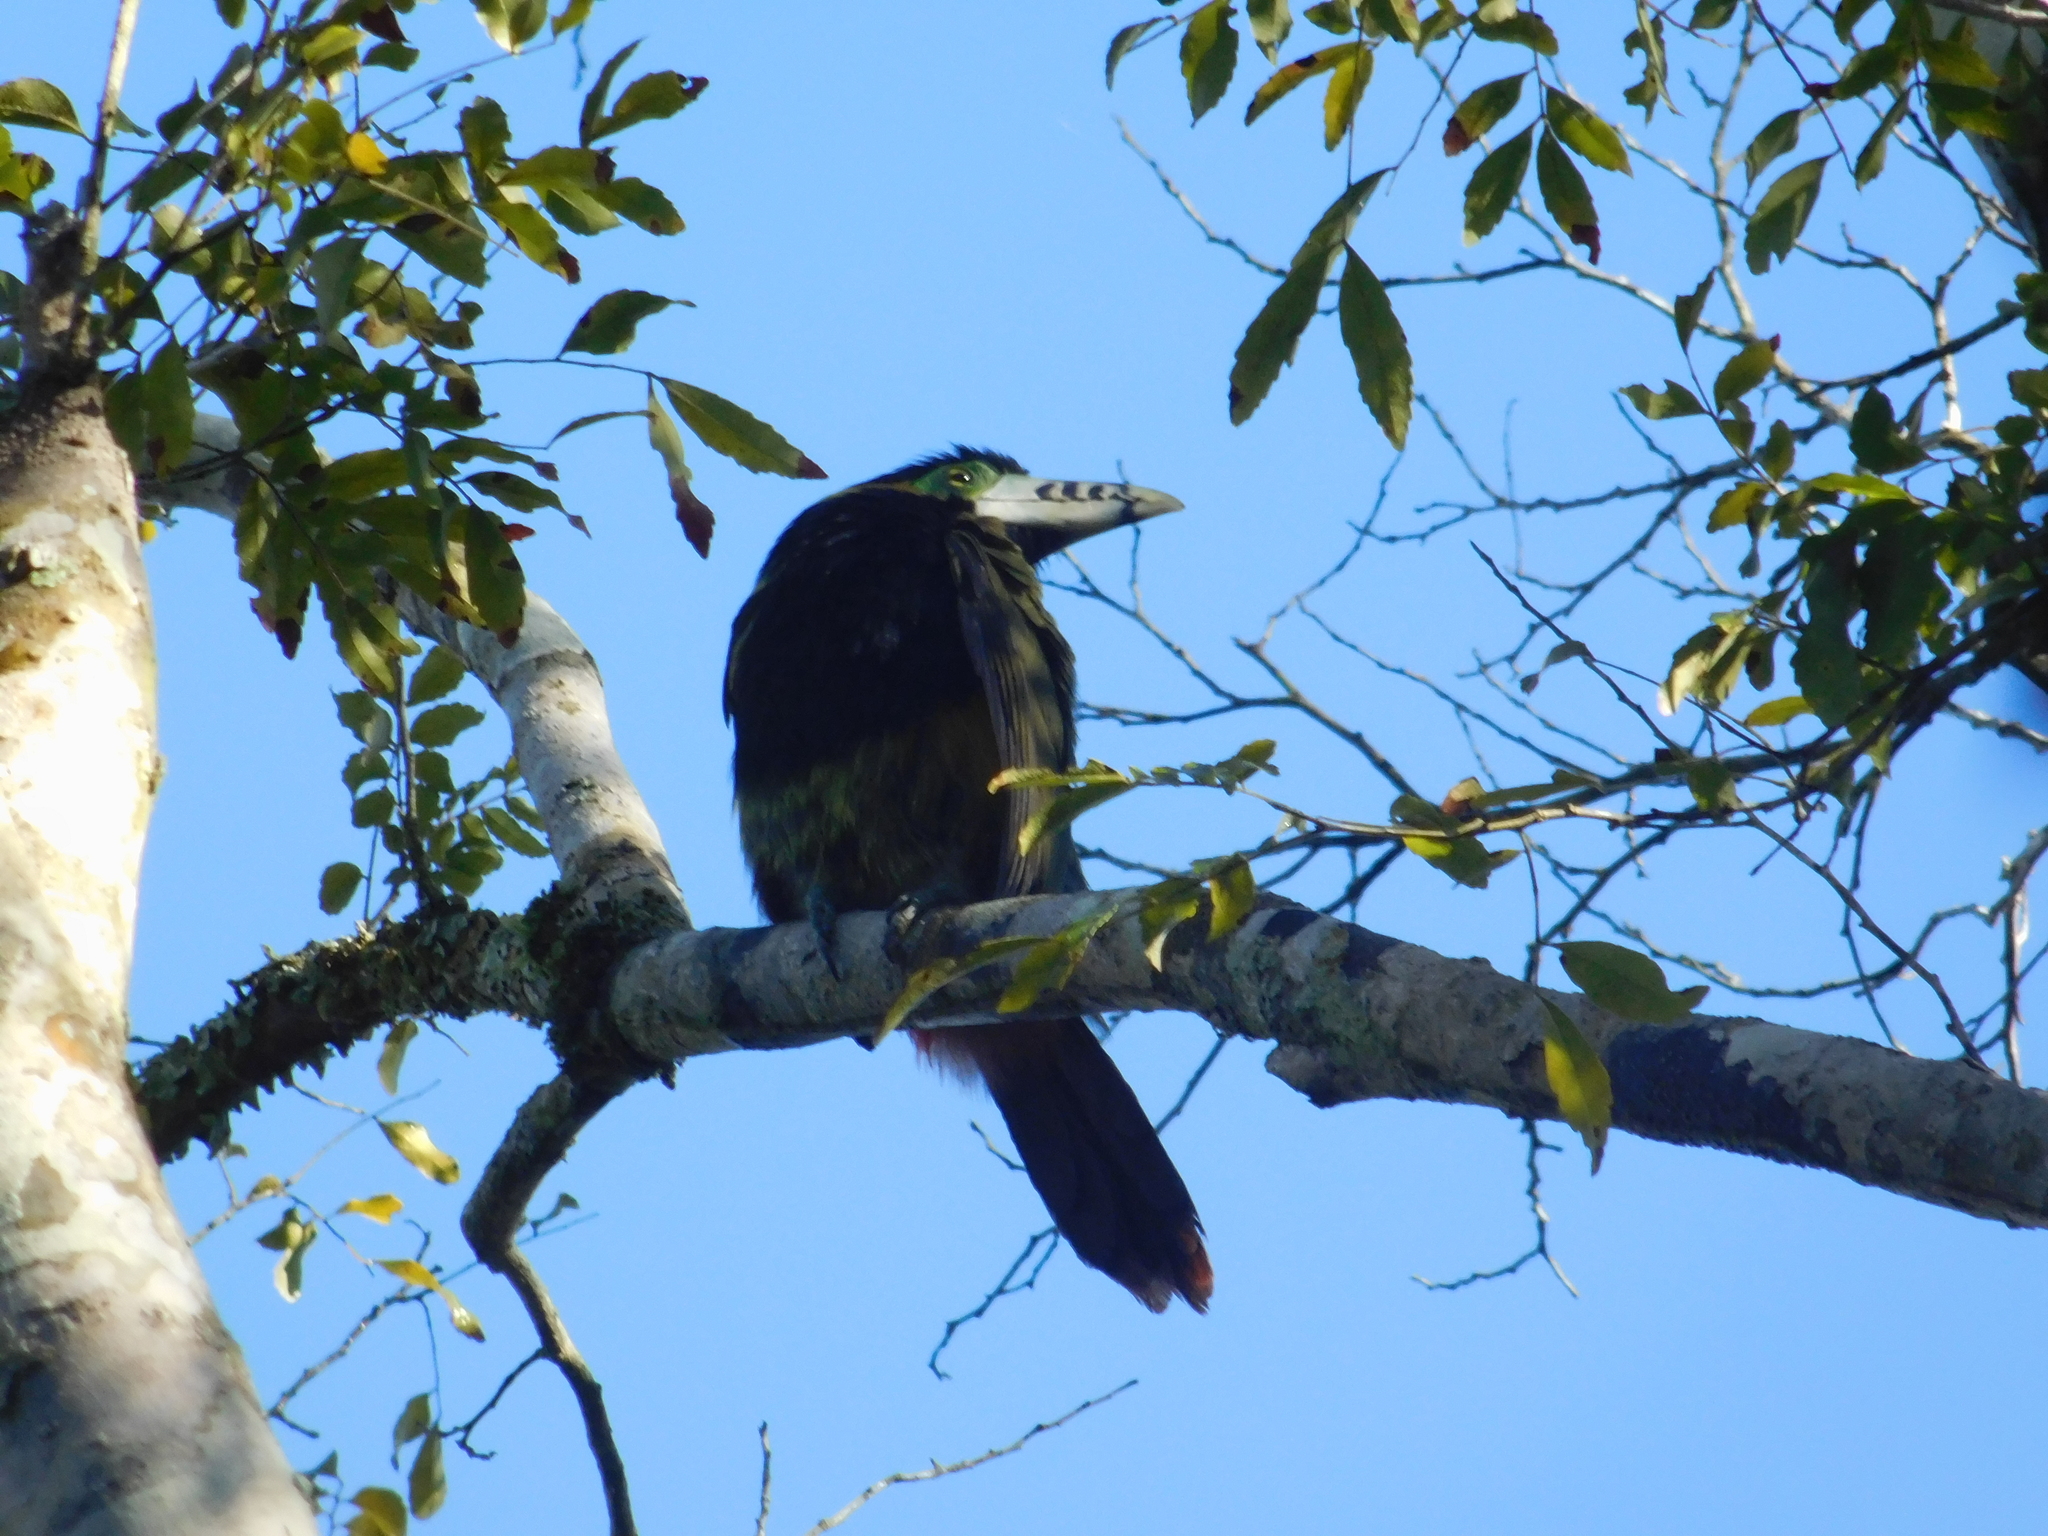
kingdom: Animalia
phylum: Chordata
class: Aves
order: Piciformes
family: Ramphastidae
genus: Selenidera
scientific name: Selenidera maculirostris
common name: Spot-billed toucanet
